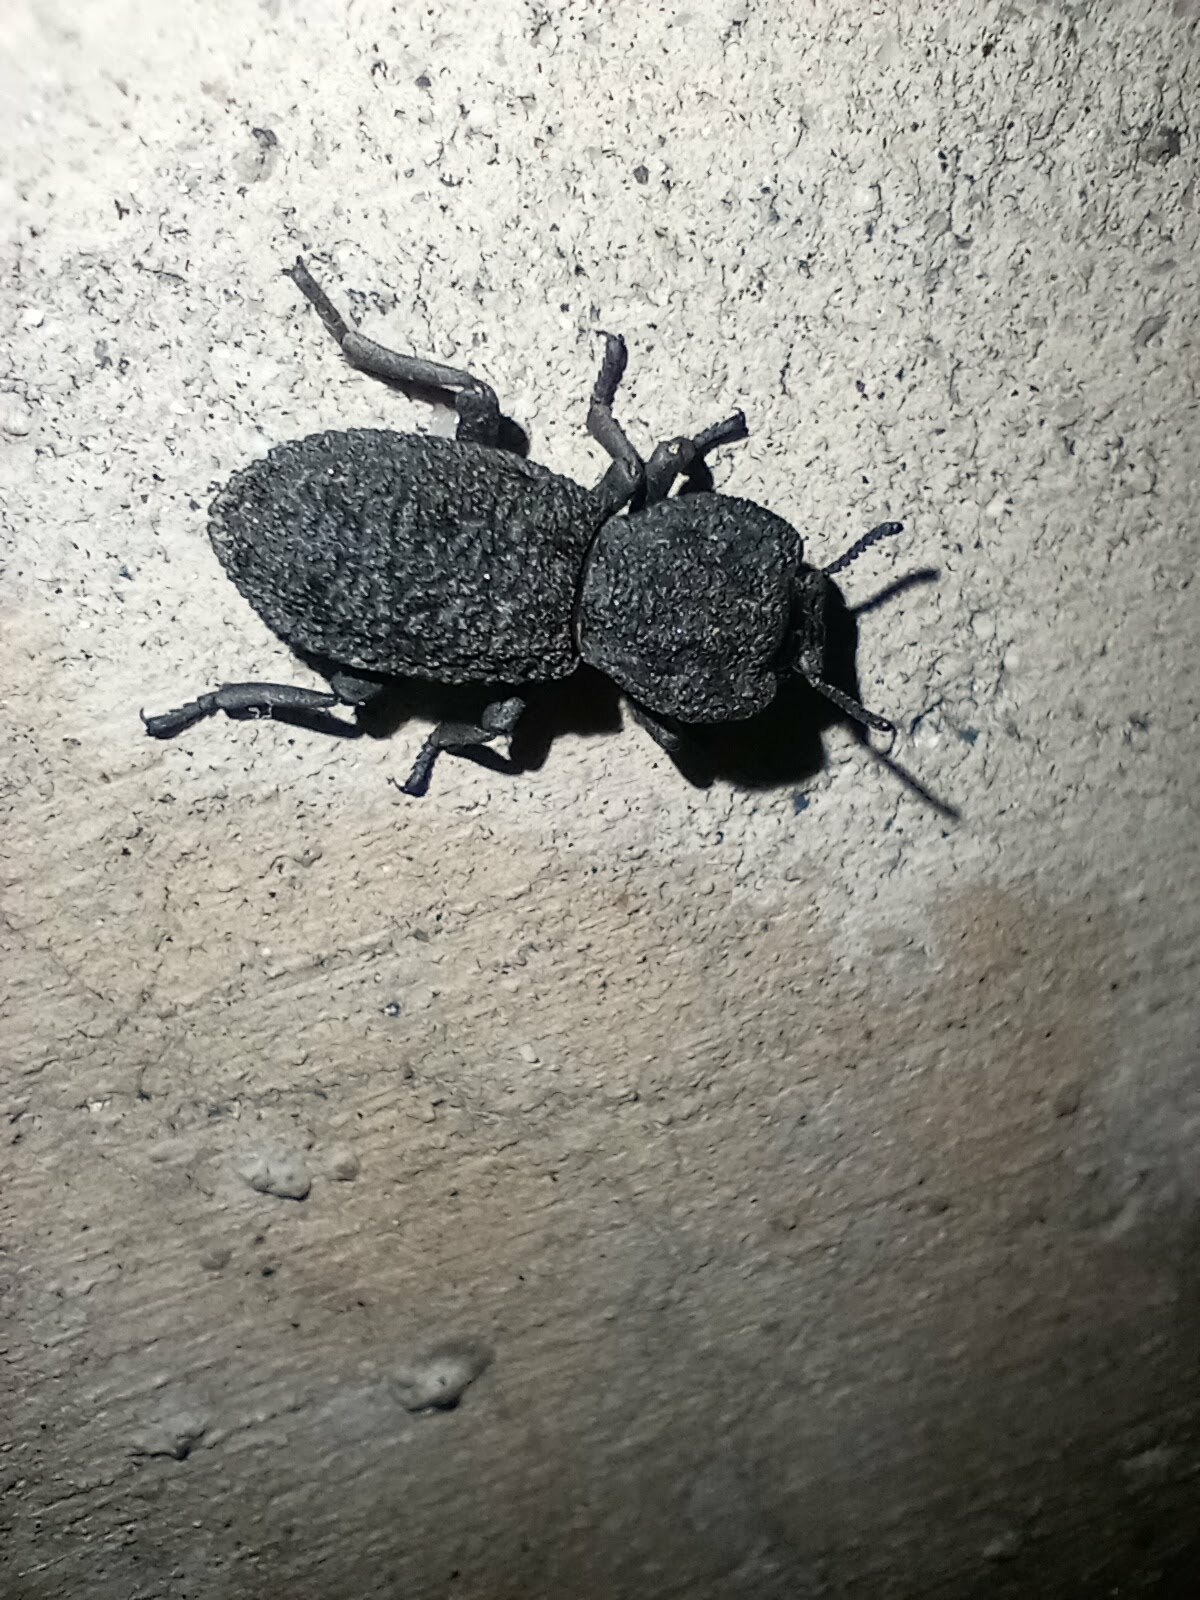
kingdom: Animalia
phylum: Arthropoda
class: Insecta
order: Coleoptera
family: Zopheridae
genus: Phloeodes
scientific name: Phloeodes diabolicus
